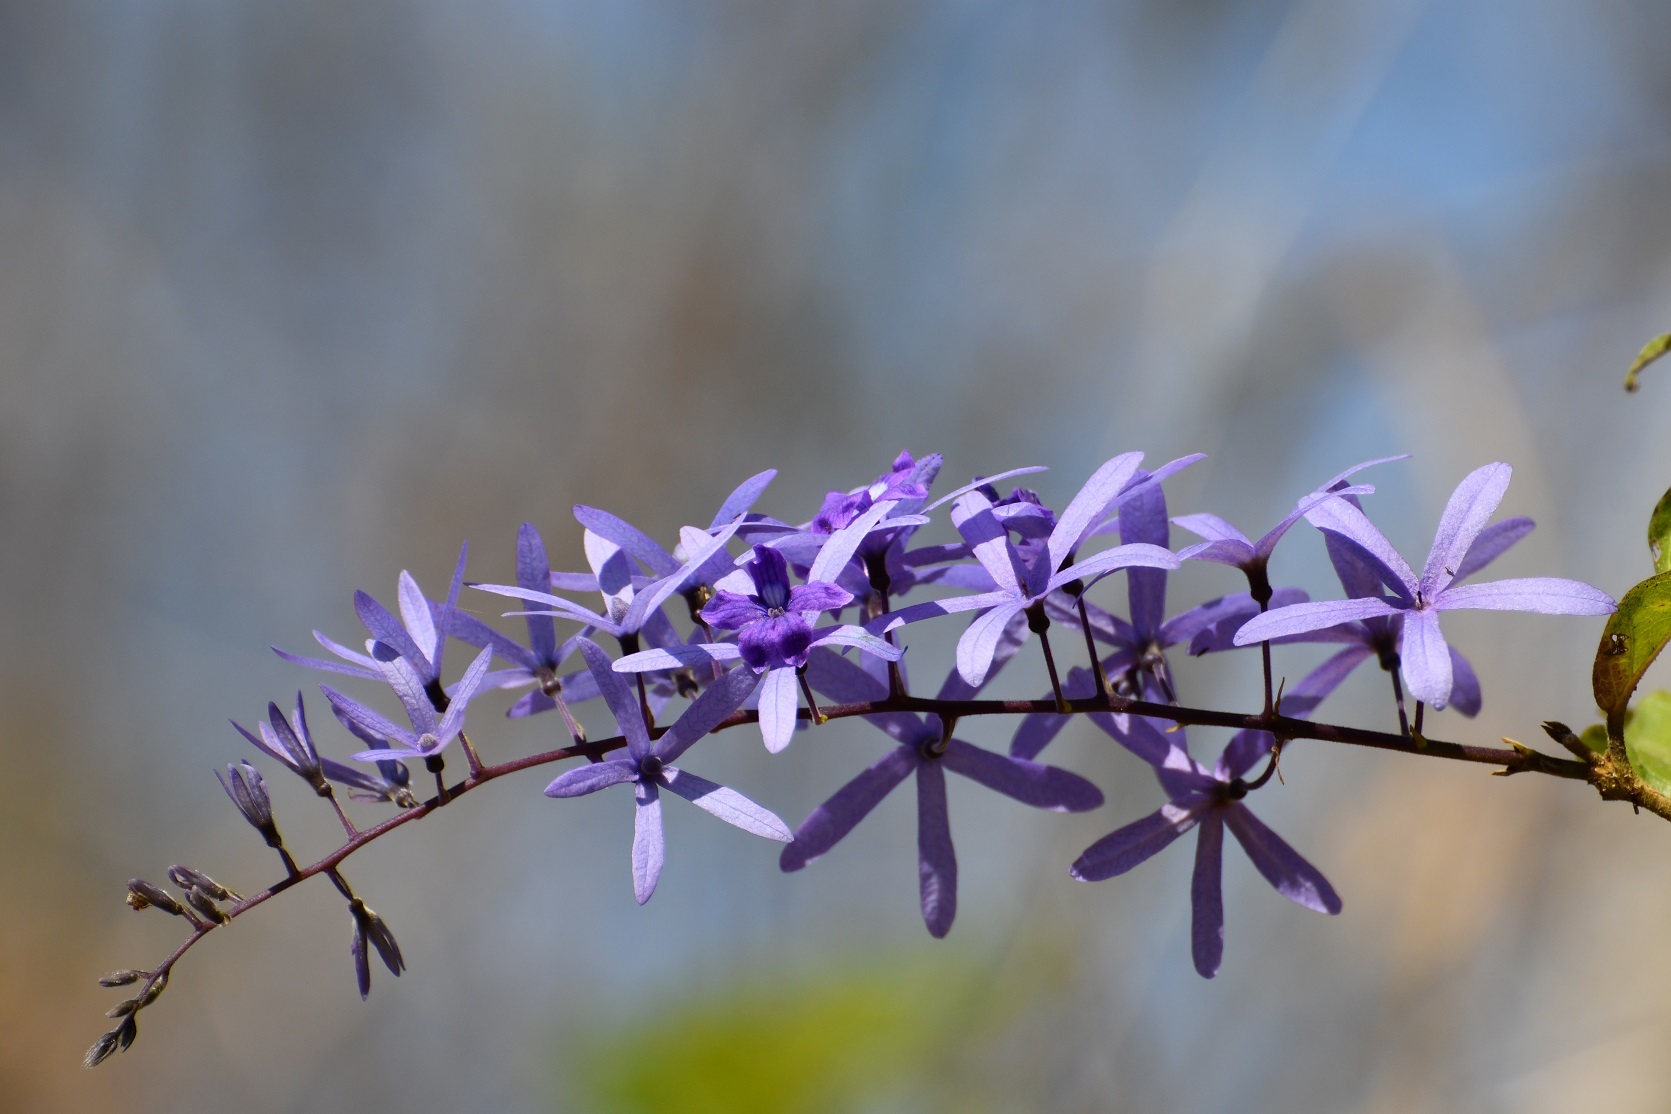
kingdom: Plantae
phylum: Tracheophyta
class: Magnoliopsida
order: Lamiales
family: Verbenaceae
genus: Petrea
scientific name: Petrea volubilis
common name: Queen's-wreath
